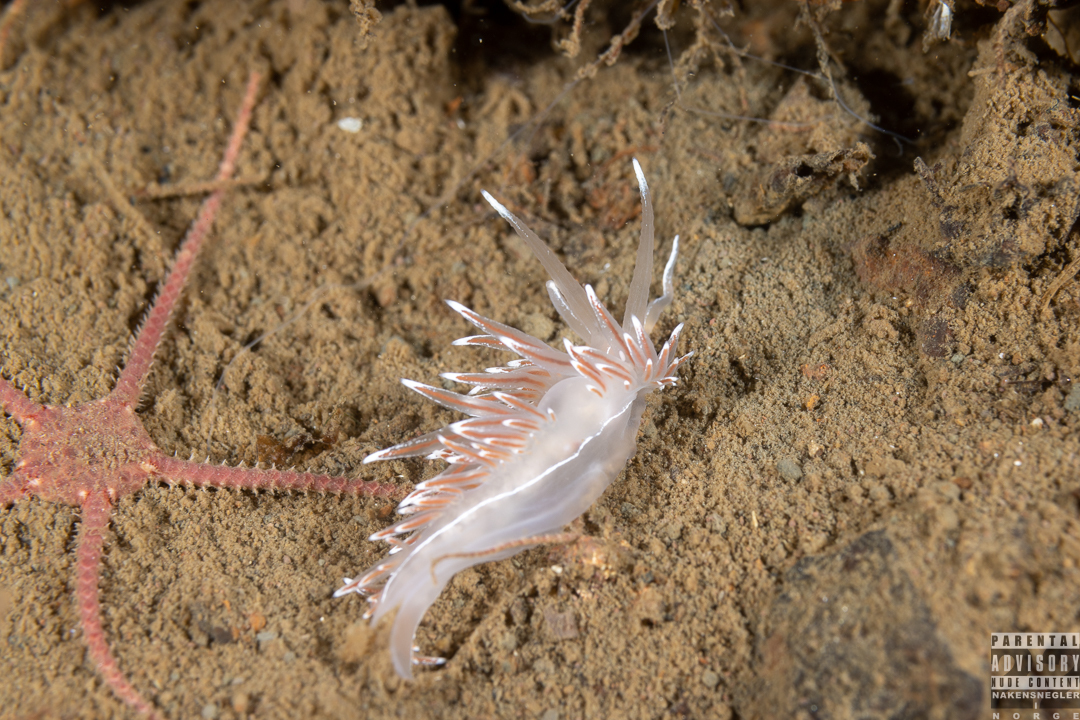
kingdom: Animalia
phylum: Mollusca
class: Gastropoda
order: Nudibranchia
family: Coryphellidae
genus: Coryphella
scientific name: Coryphella lineata
